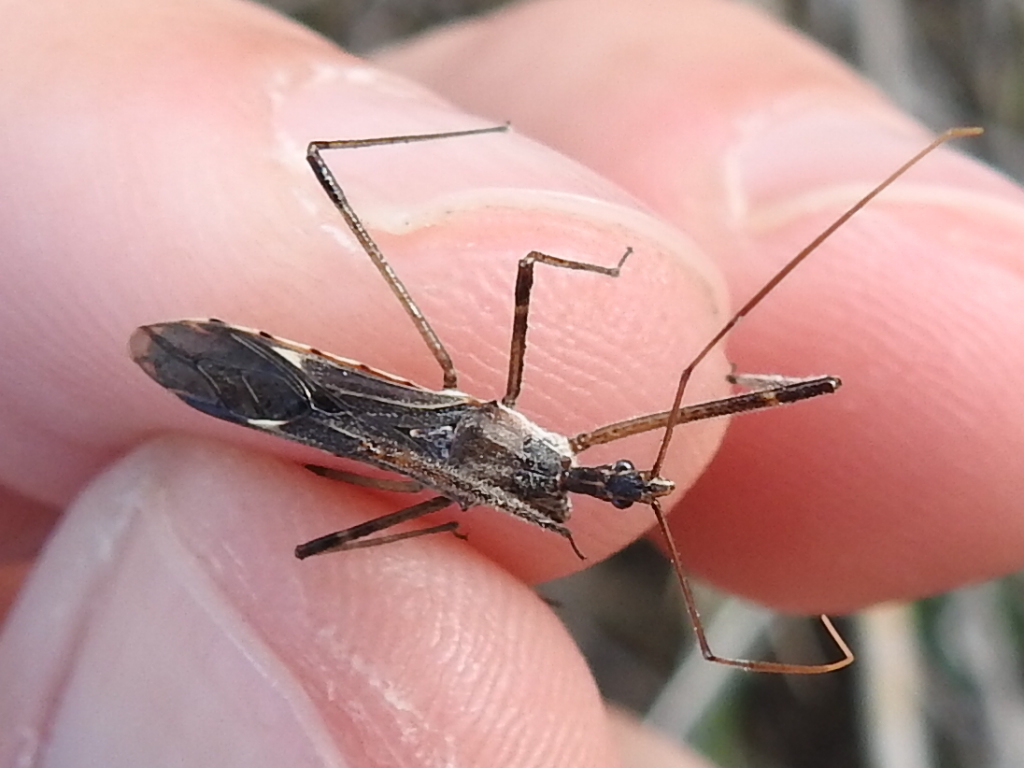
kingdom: Animalia
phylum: Arthropoda
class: Insecta
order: Hemiptera
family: Reduviidae
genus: Zelus
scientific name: Zelus tetracanthus
